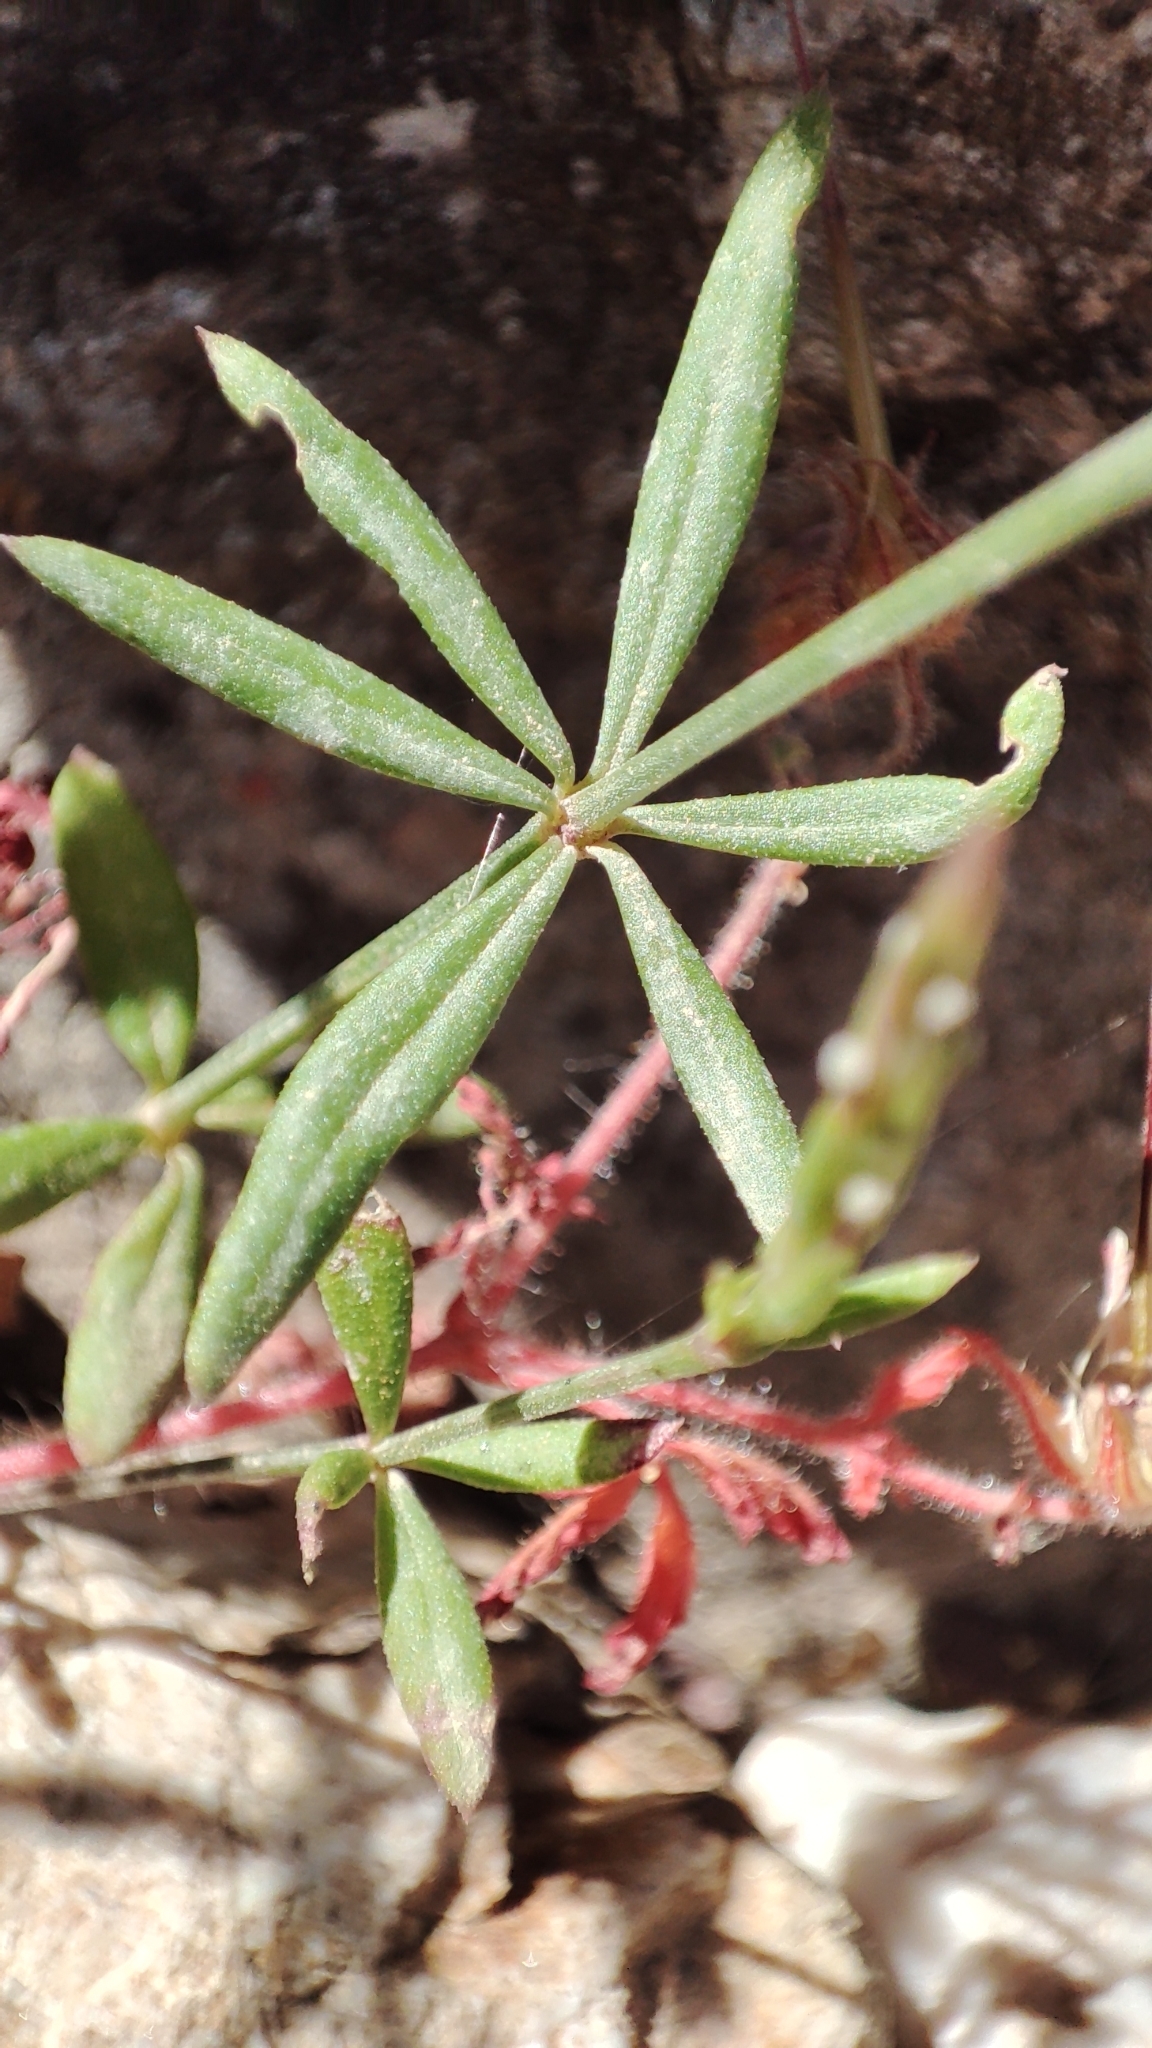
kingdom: Plantae
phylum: Tracheophyta
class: Magnoliopsida
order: Gentianales
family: Rubiaceae
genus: Crucianella
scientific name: Crucianella latifolia
